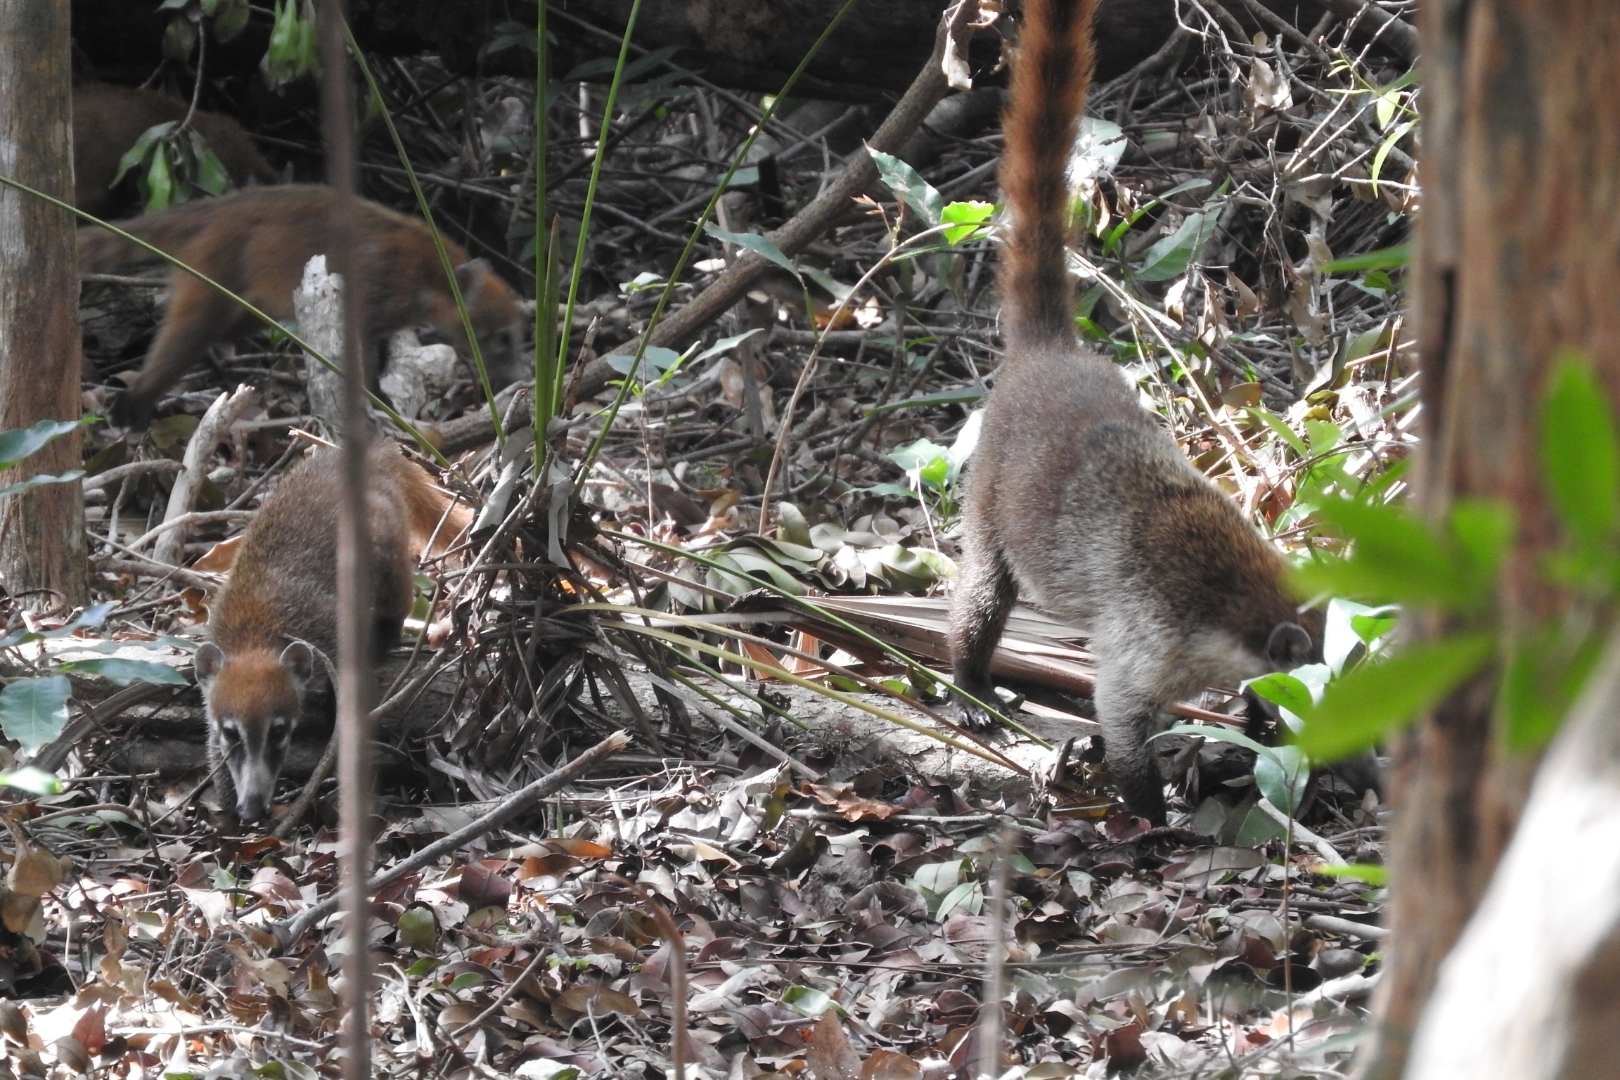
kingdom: Animalia
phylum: Chordata
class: Mammalia
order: Carnivora
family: Procyonidae
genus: Nasua
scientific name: Nasua narica
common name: White-nosed coati
